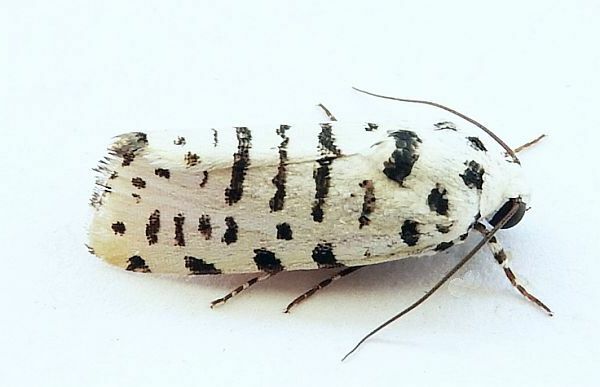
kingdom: Animalia
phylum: Arthropoda
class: Insecta
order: Lepidoptera
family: Noctuidae
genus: Acontia
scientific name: Acontia idella
